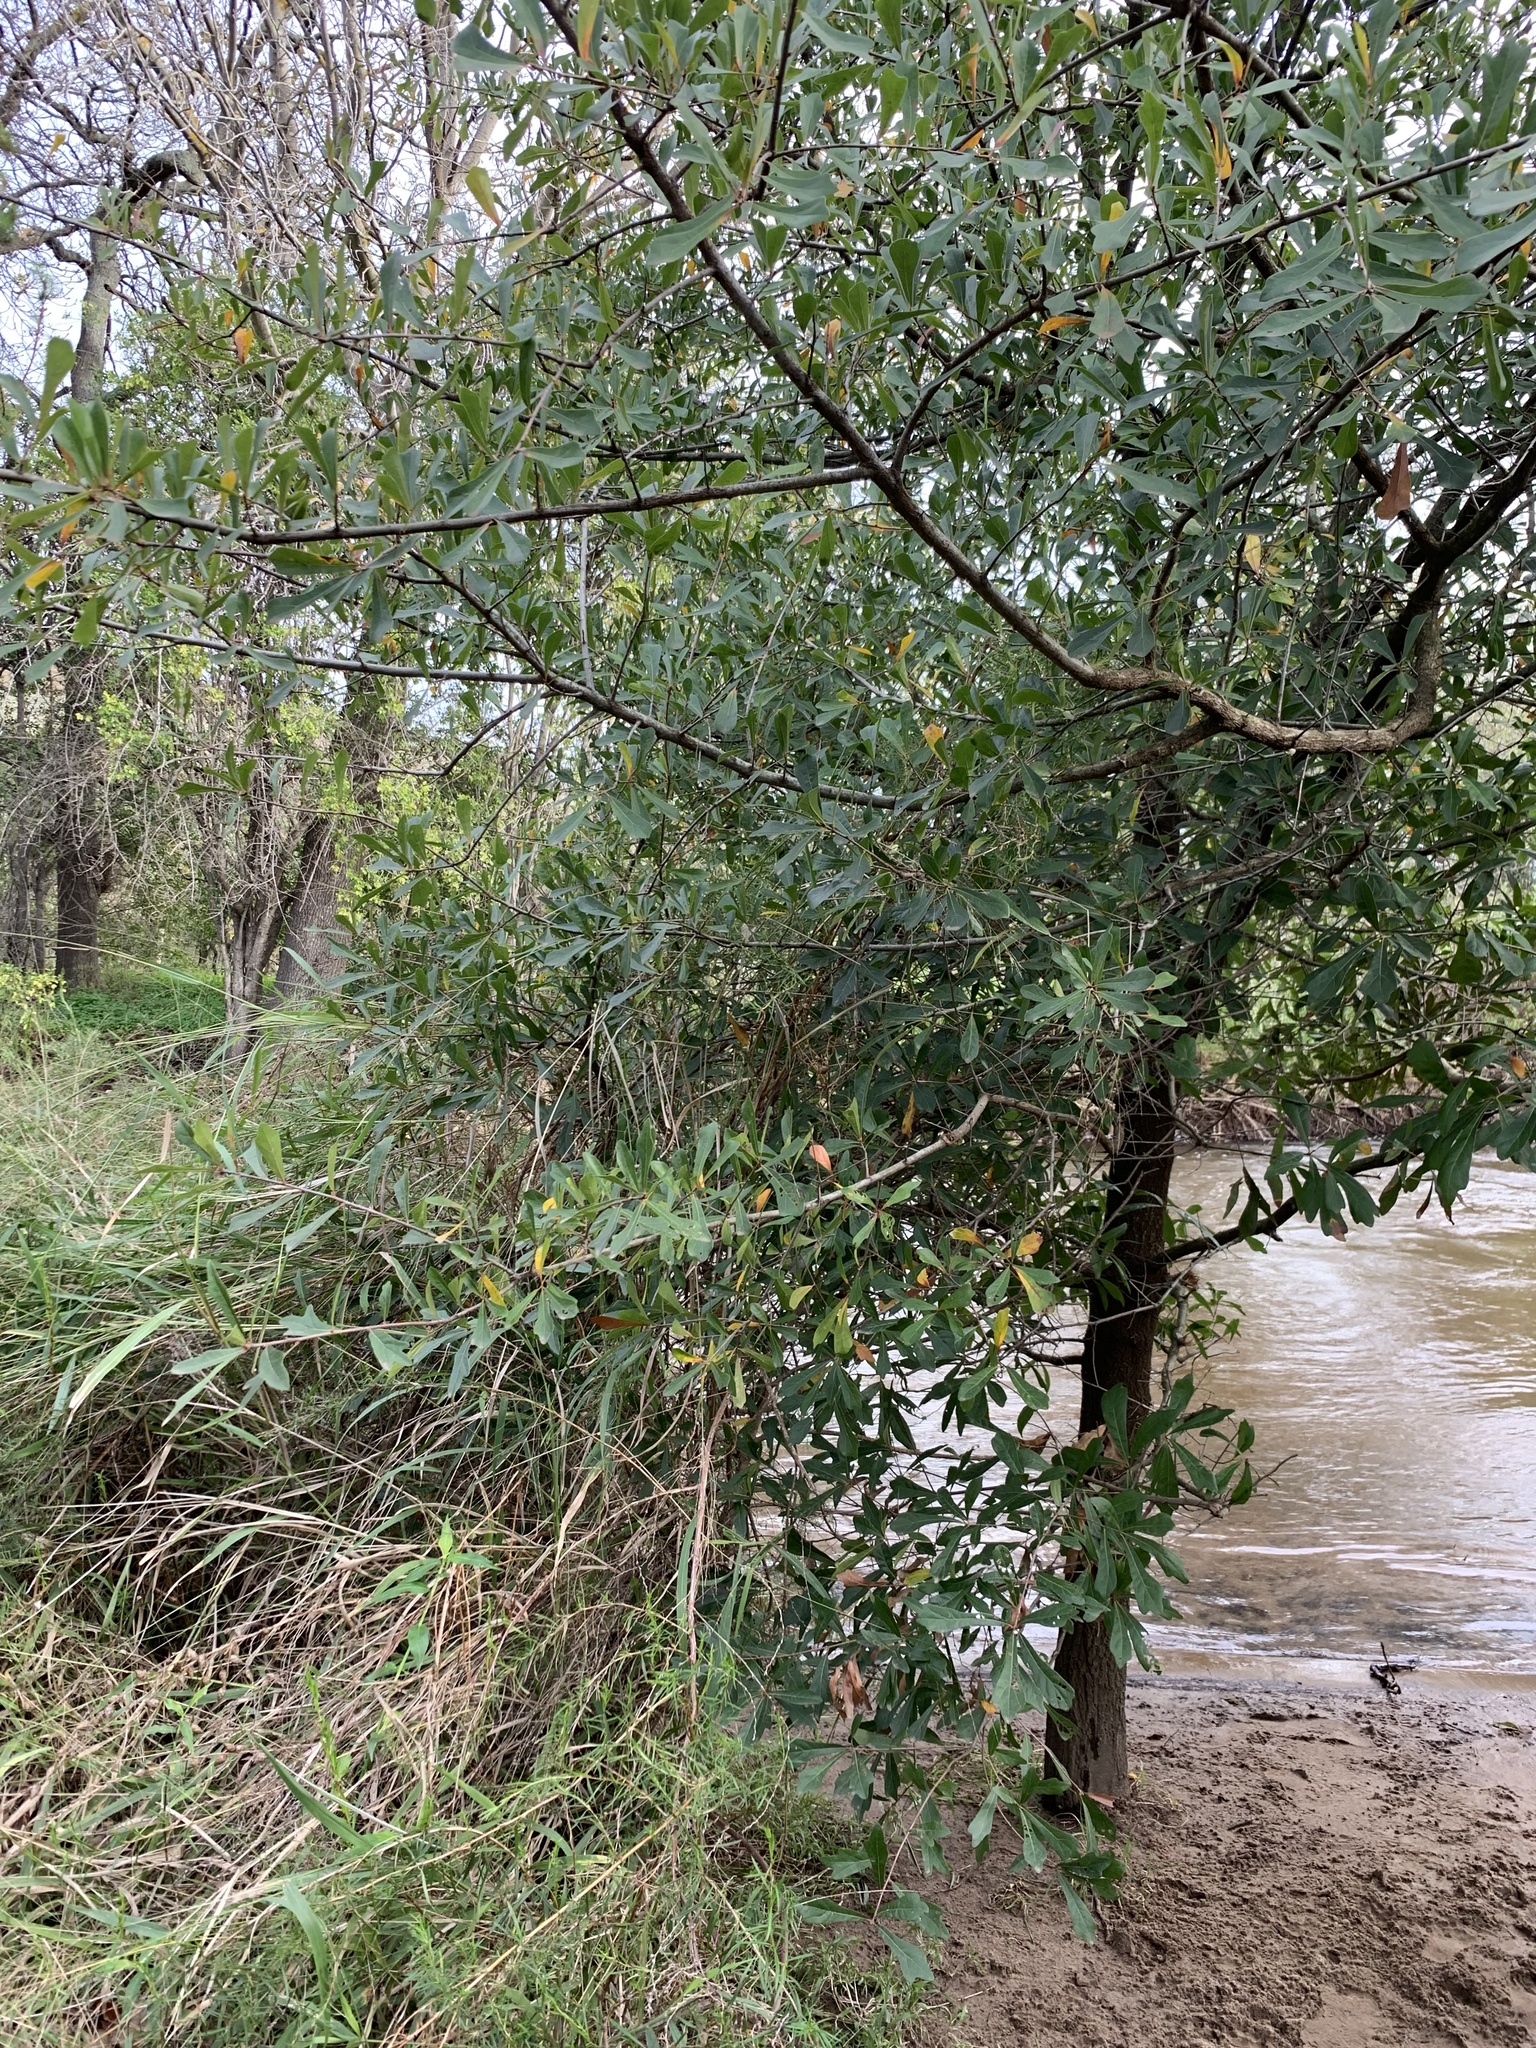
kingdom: Plantae
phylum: Tracheophyta
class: Magnoliopsida
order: Fagales
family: Fagaceae
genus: Quercus
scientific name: Quercus nigra
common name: Water oak
